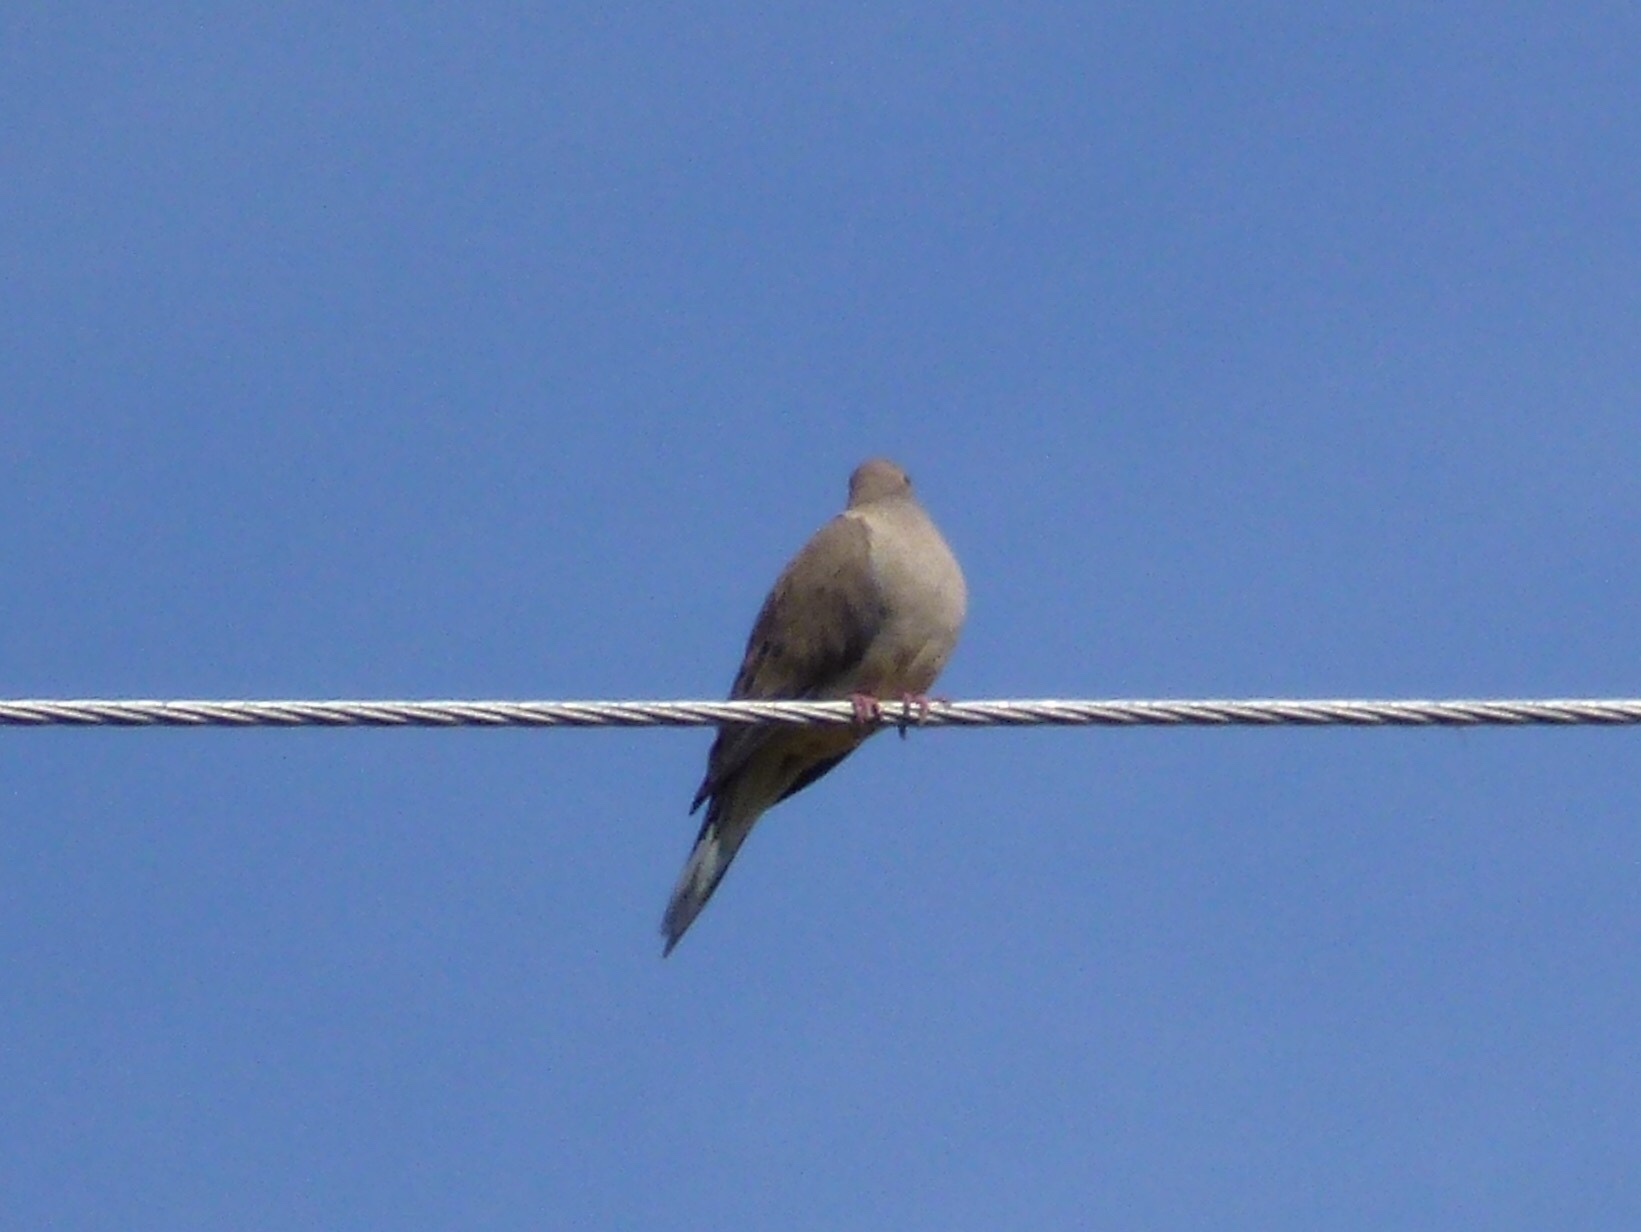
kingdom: Animalia
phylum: Chordata
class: Aves
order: Columbiformes
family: Columbidae
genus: Zenaida
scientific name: Zenaida macroura
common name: Mourning dove
